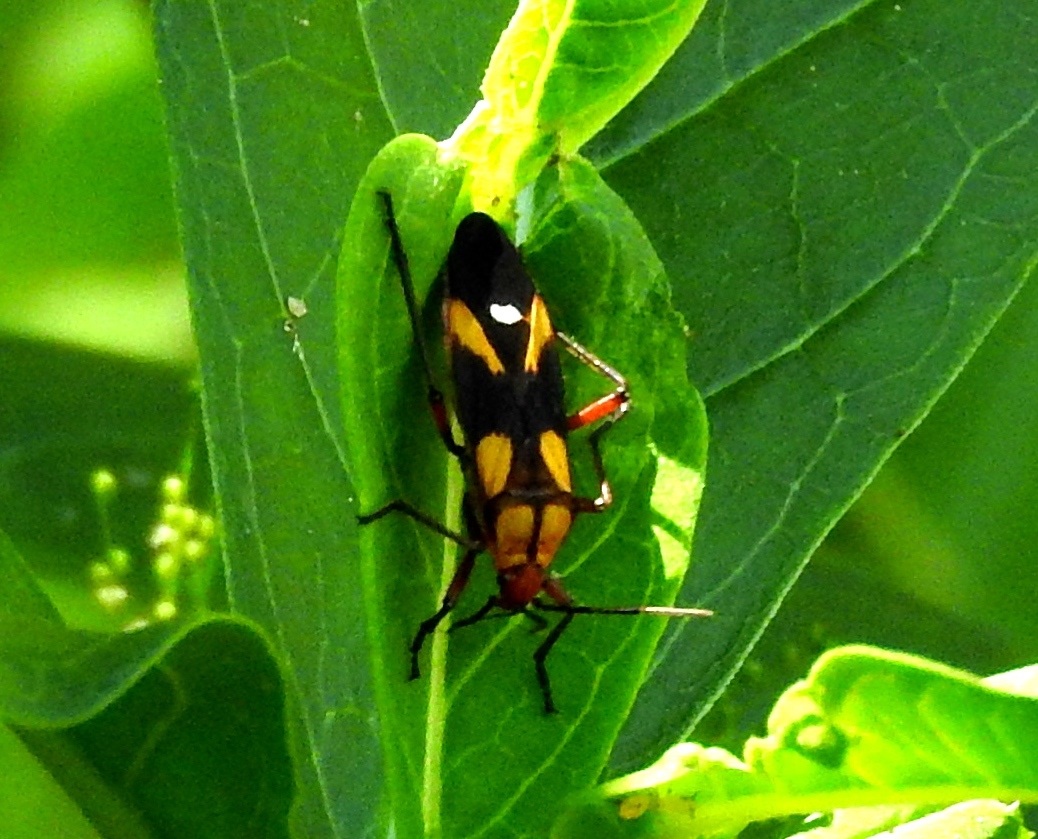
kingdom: Animalia
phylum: Arthropoda
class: Insecta
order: Hemiptera
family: Lygaeidae
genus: Oncopeltus
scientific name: Oncopeltus sexmaculatus
